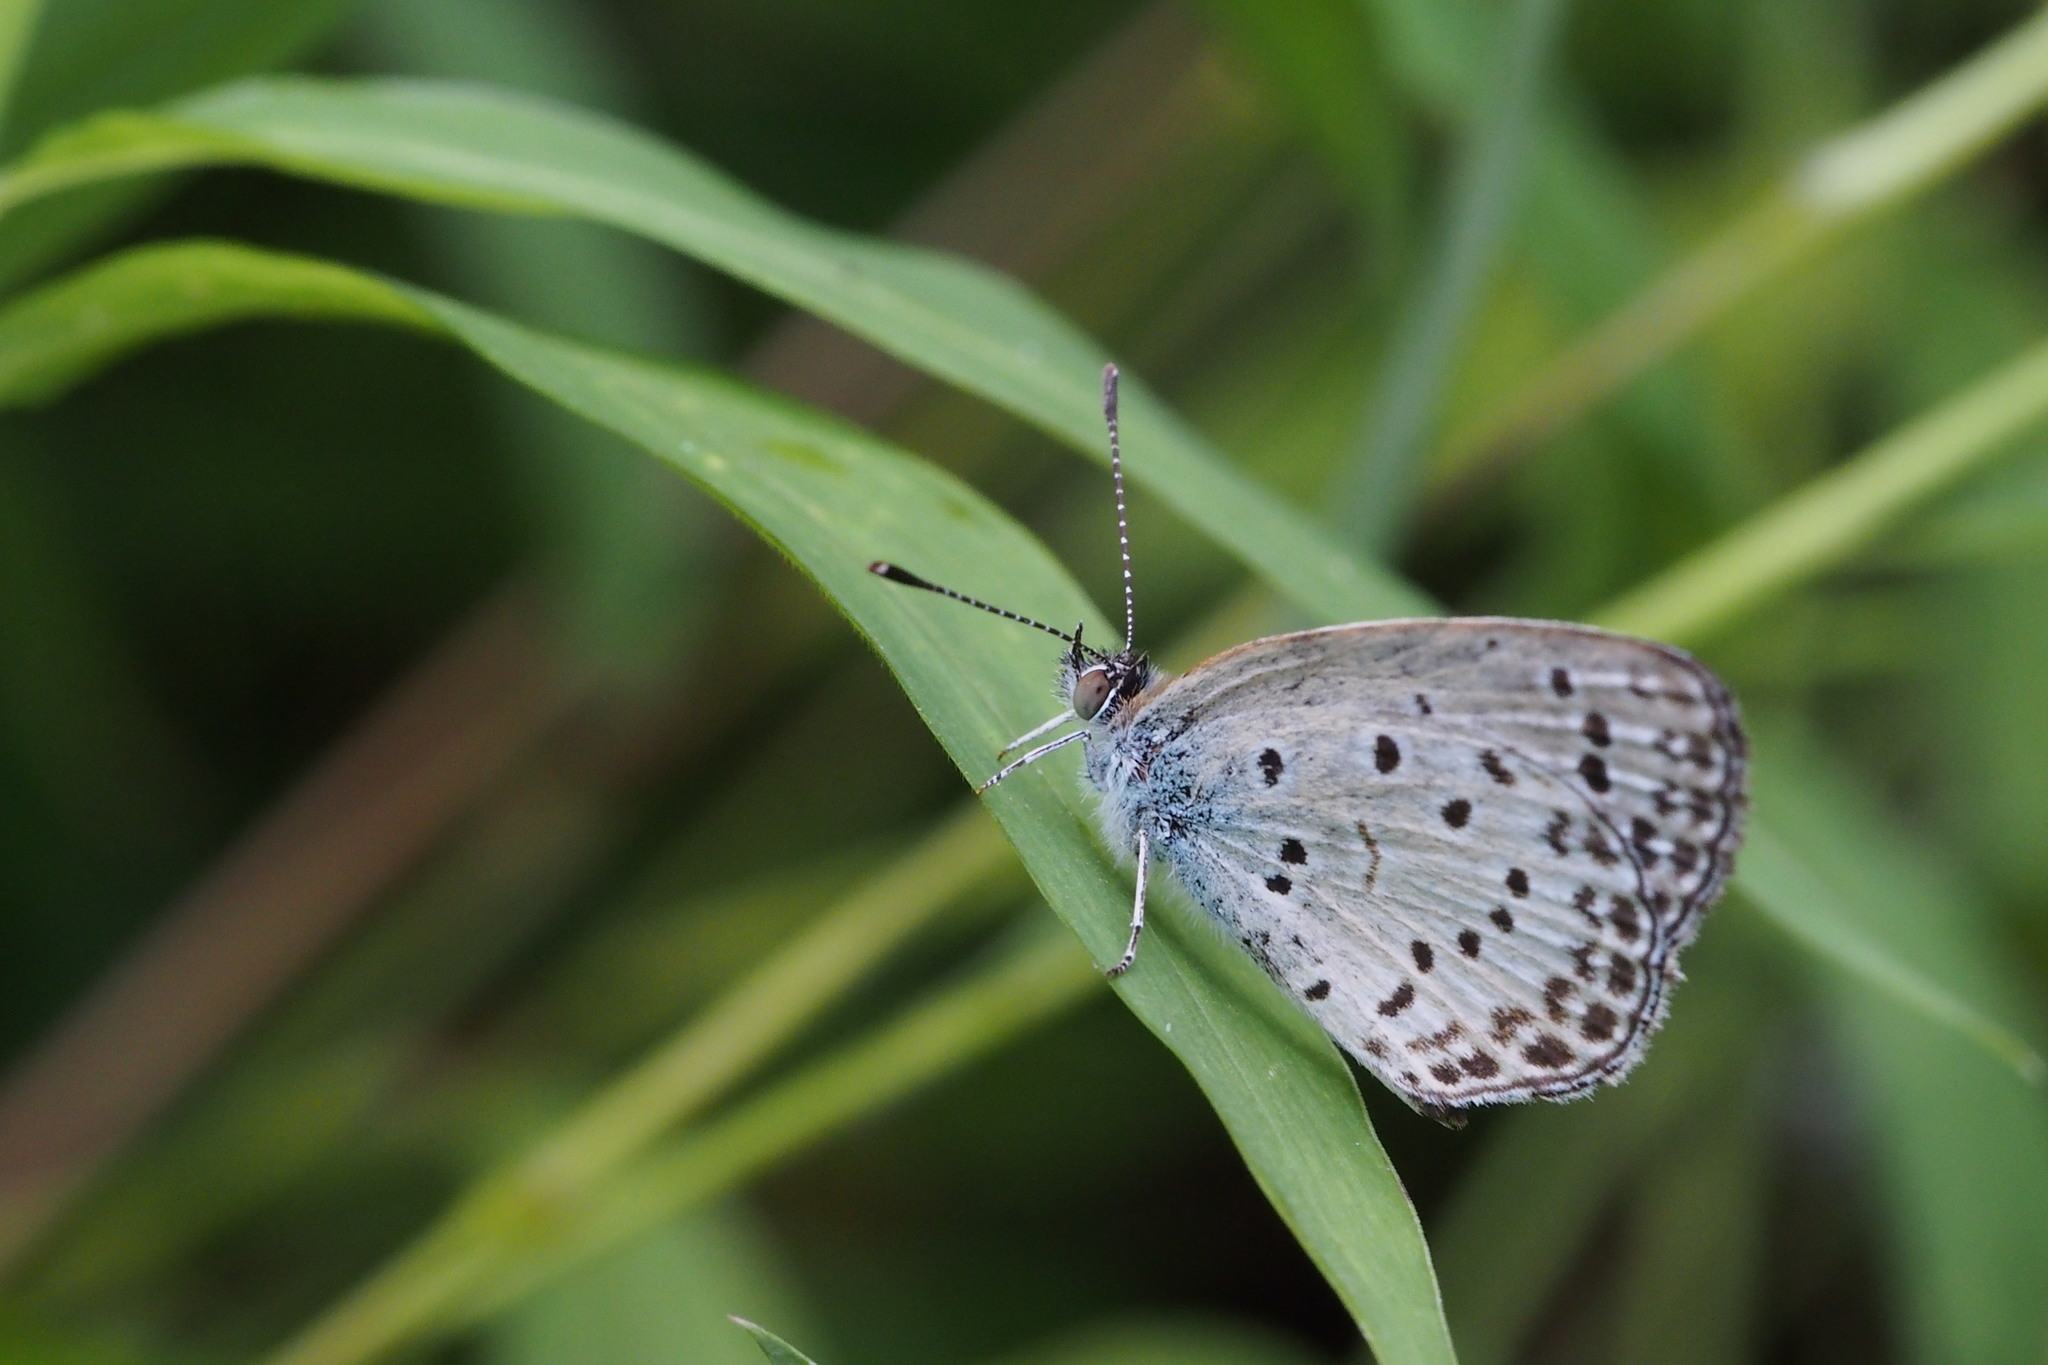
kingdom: Animalia
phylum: Arthropoda
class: Insecta
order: Lepidoptera
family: Lycaenidae
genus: Pseudozizeeria
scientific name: Pseudozizeeria maha
